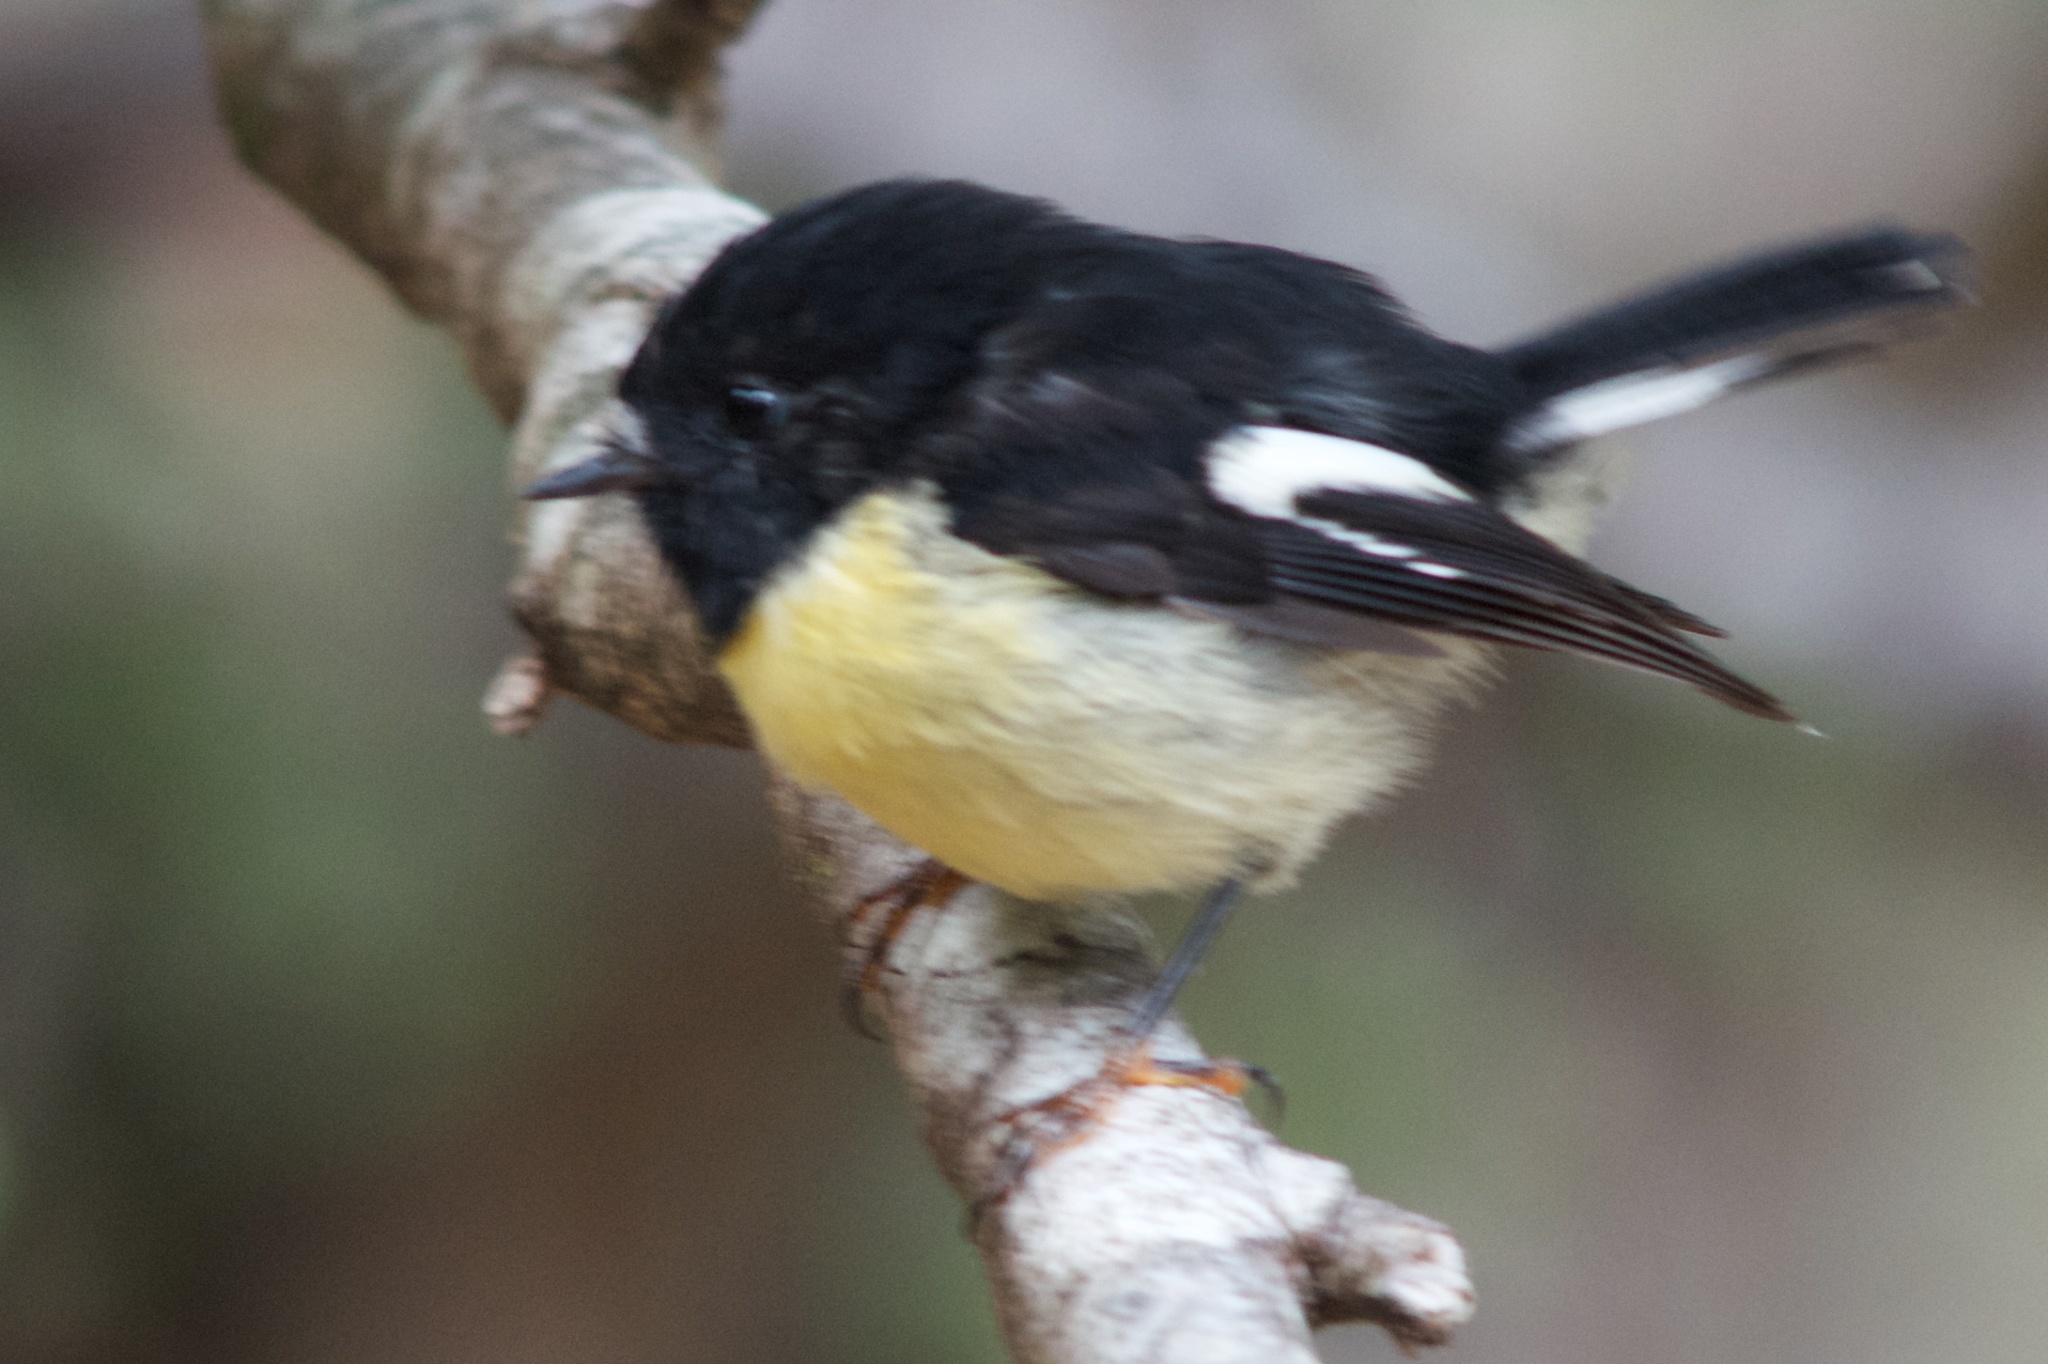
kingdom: Animalia
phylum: Chordata
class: Aves
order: Passeriformes
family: Petroicidae
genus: Petroica
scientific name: Petroica macrocephala
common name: Tomtit
